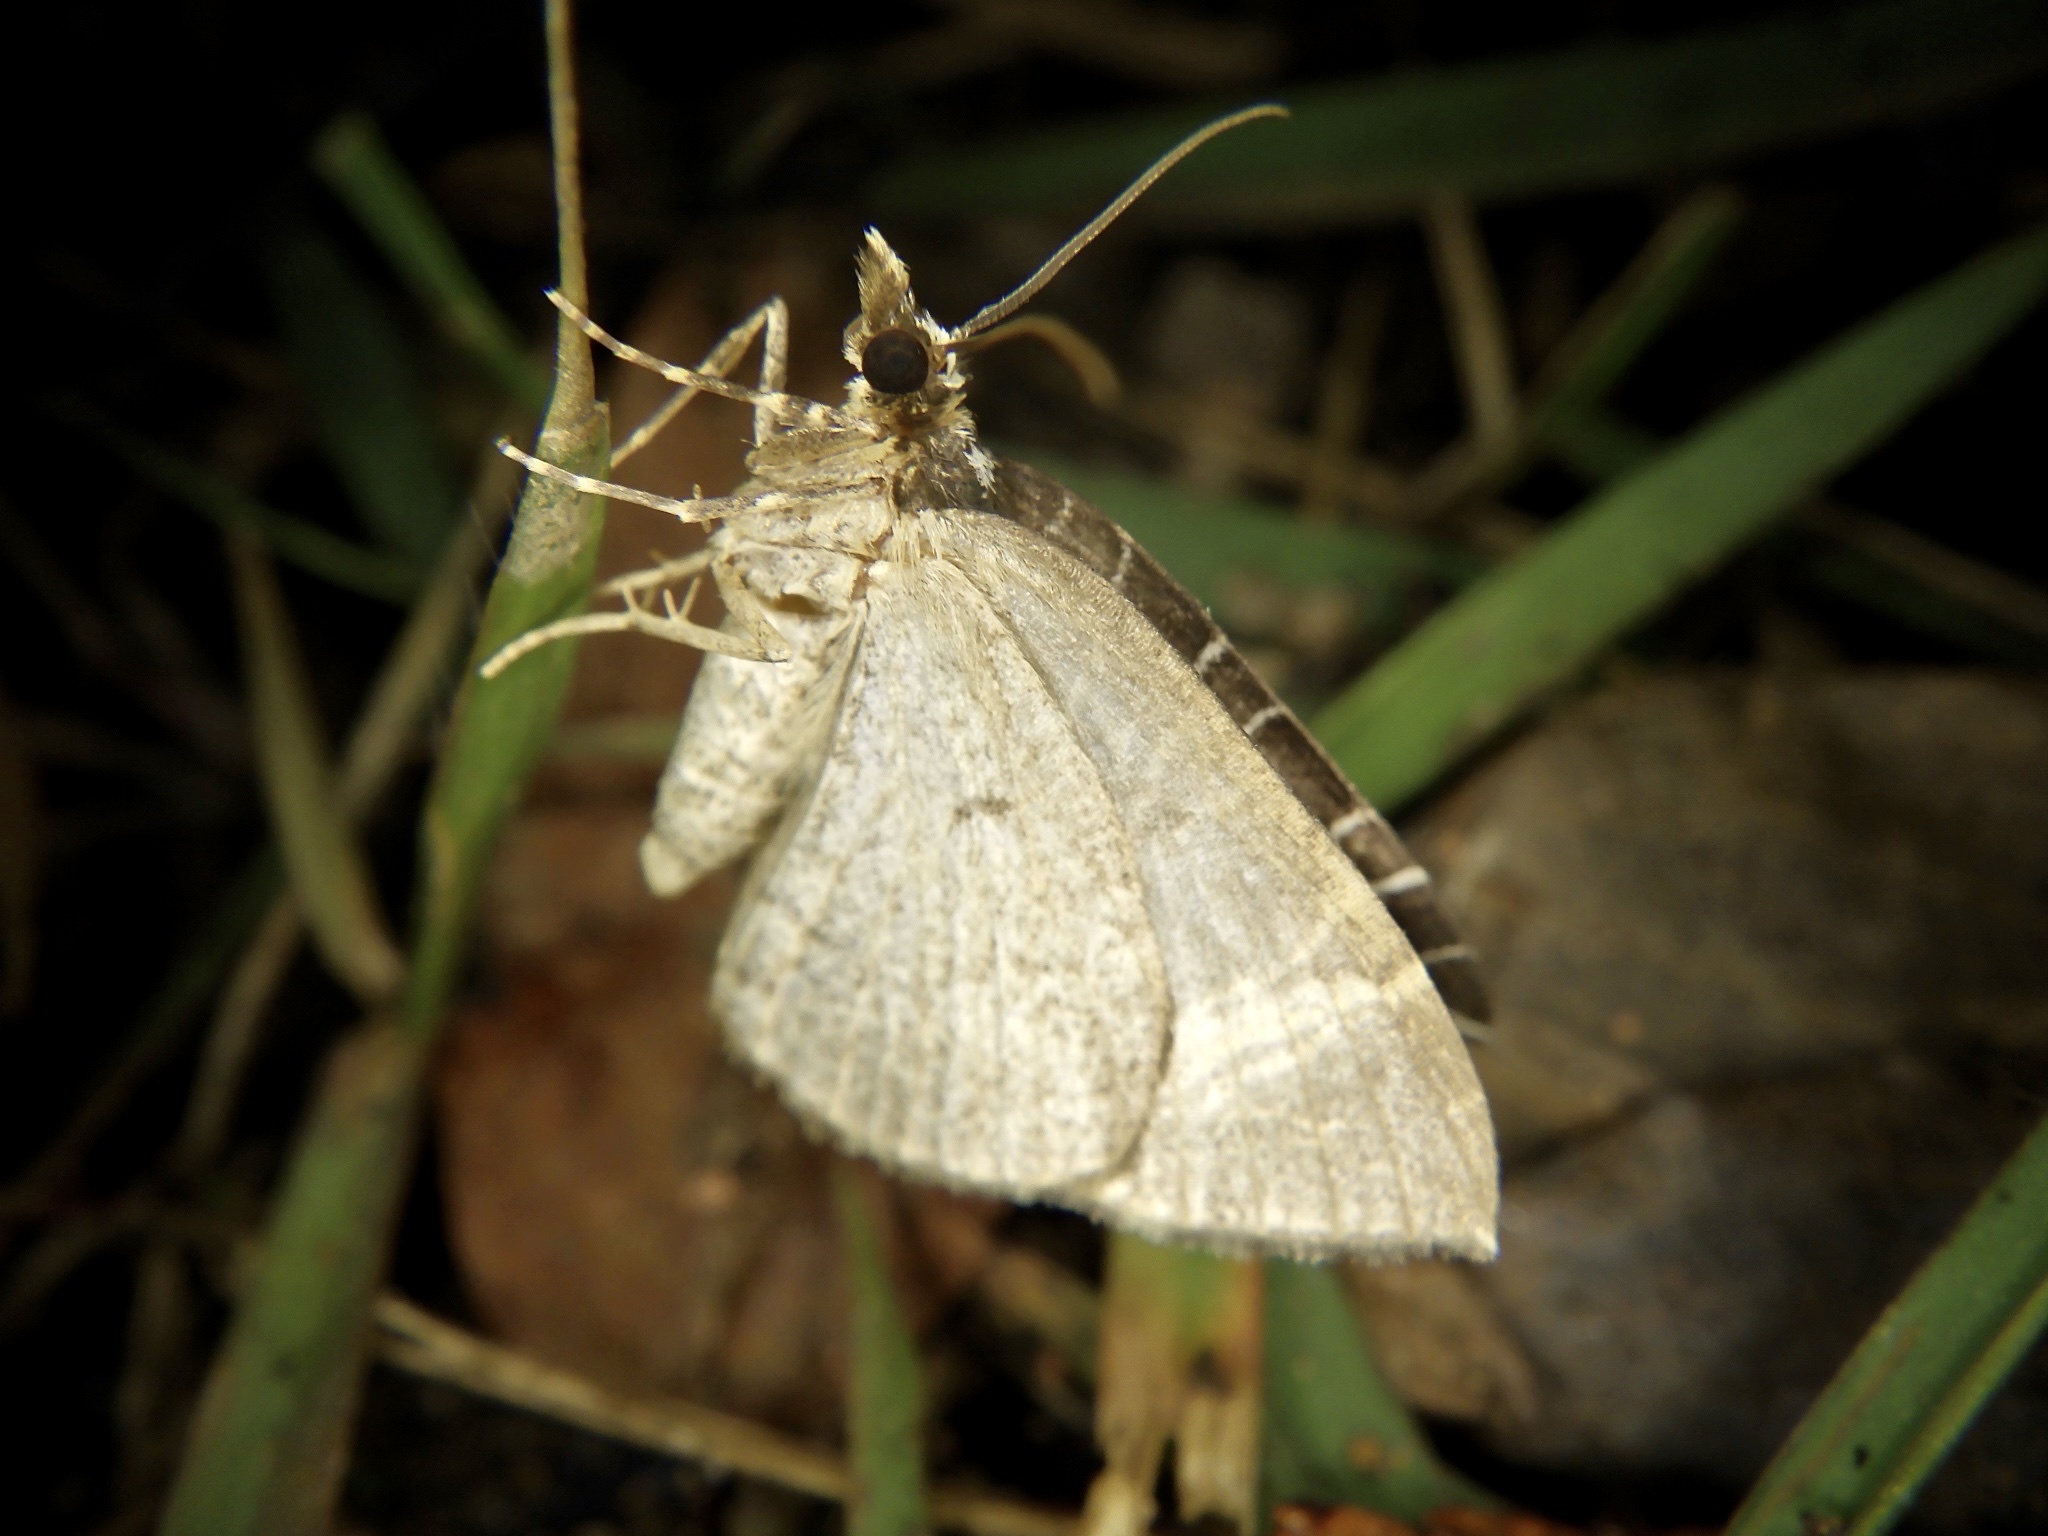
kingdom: Animalia
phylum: Arthropoda
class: Insecta
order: Lepidoptera
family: Geometridae
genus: Evecliptopera
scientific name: Evecliptopera illitata
